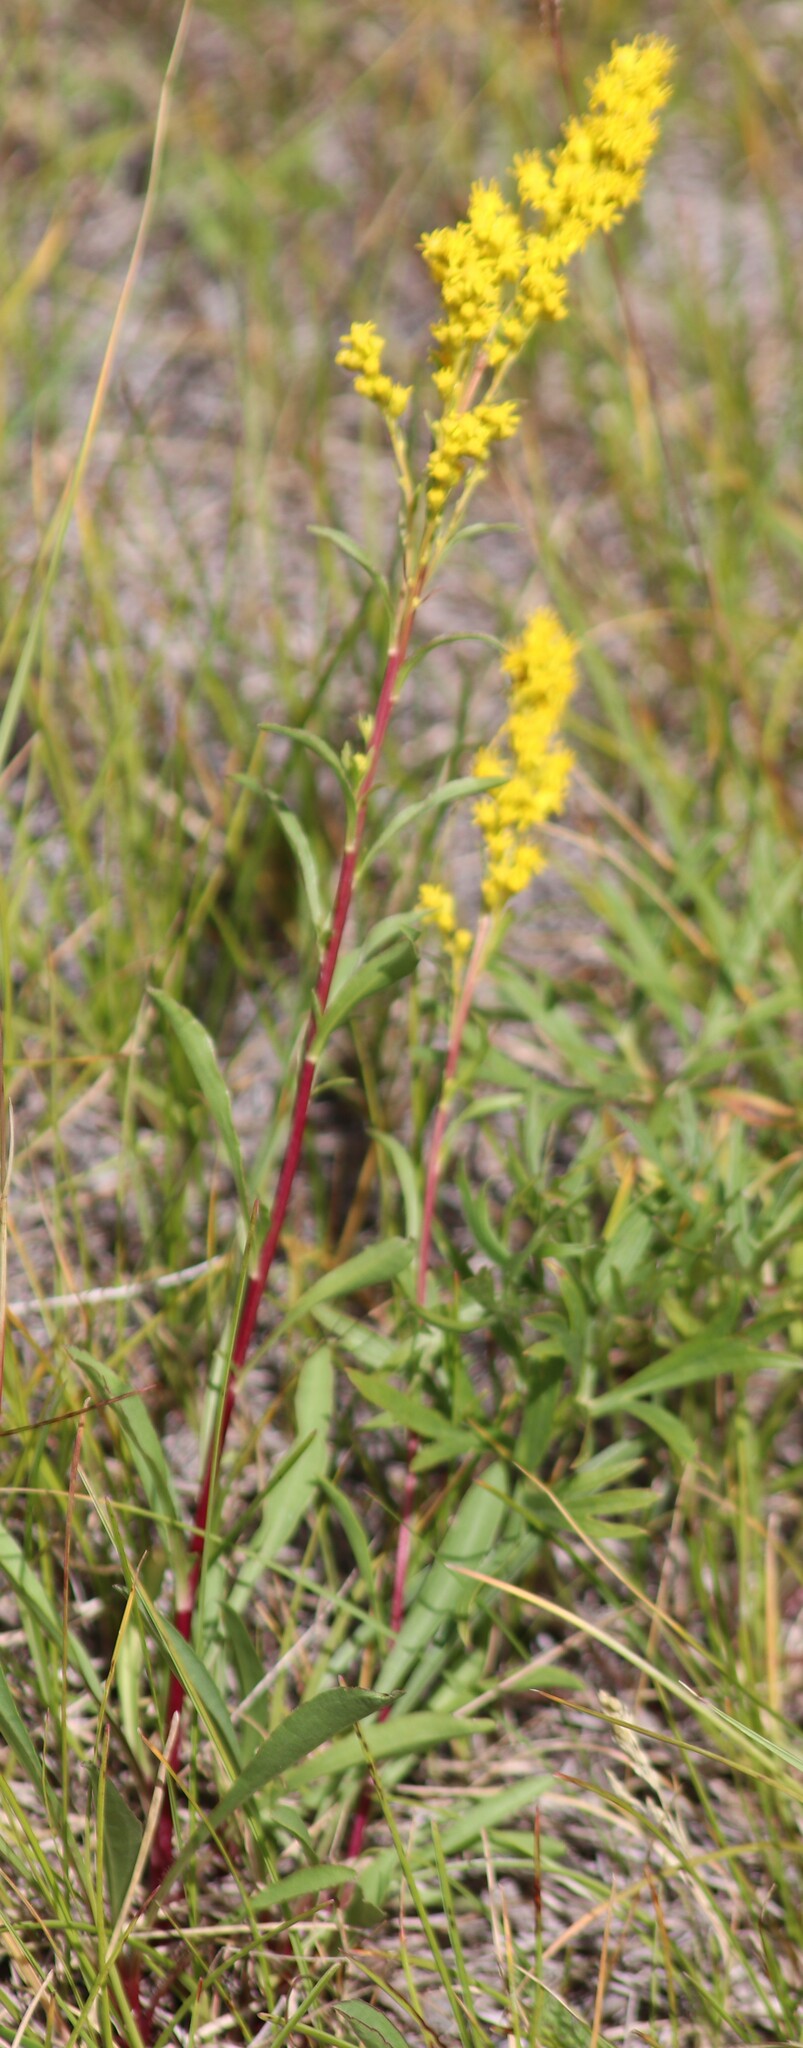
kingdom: Plantae
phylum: Tracheophyta
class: Magnoliopsida
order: Asterales
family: Asteraceae
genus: Solidago
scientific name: Solidago missouriensis
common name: Prairie goldenrod
